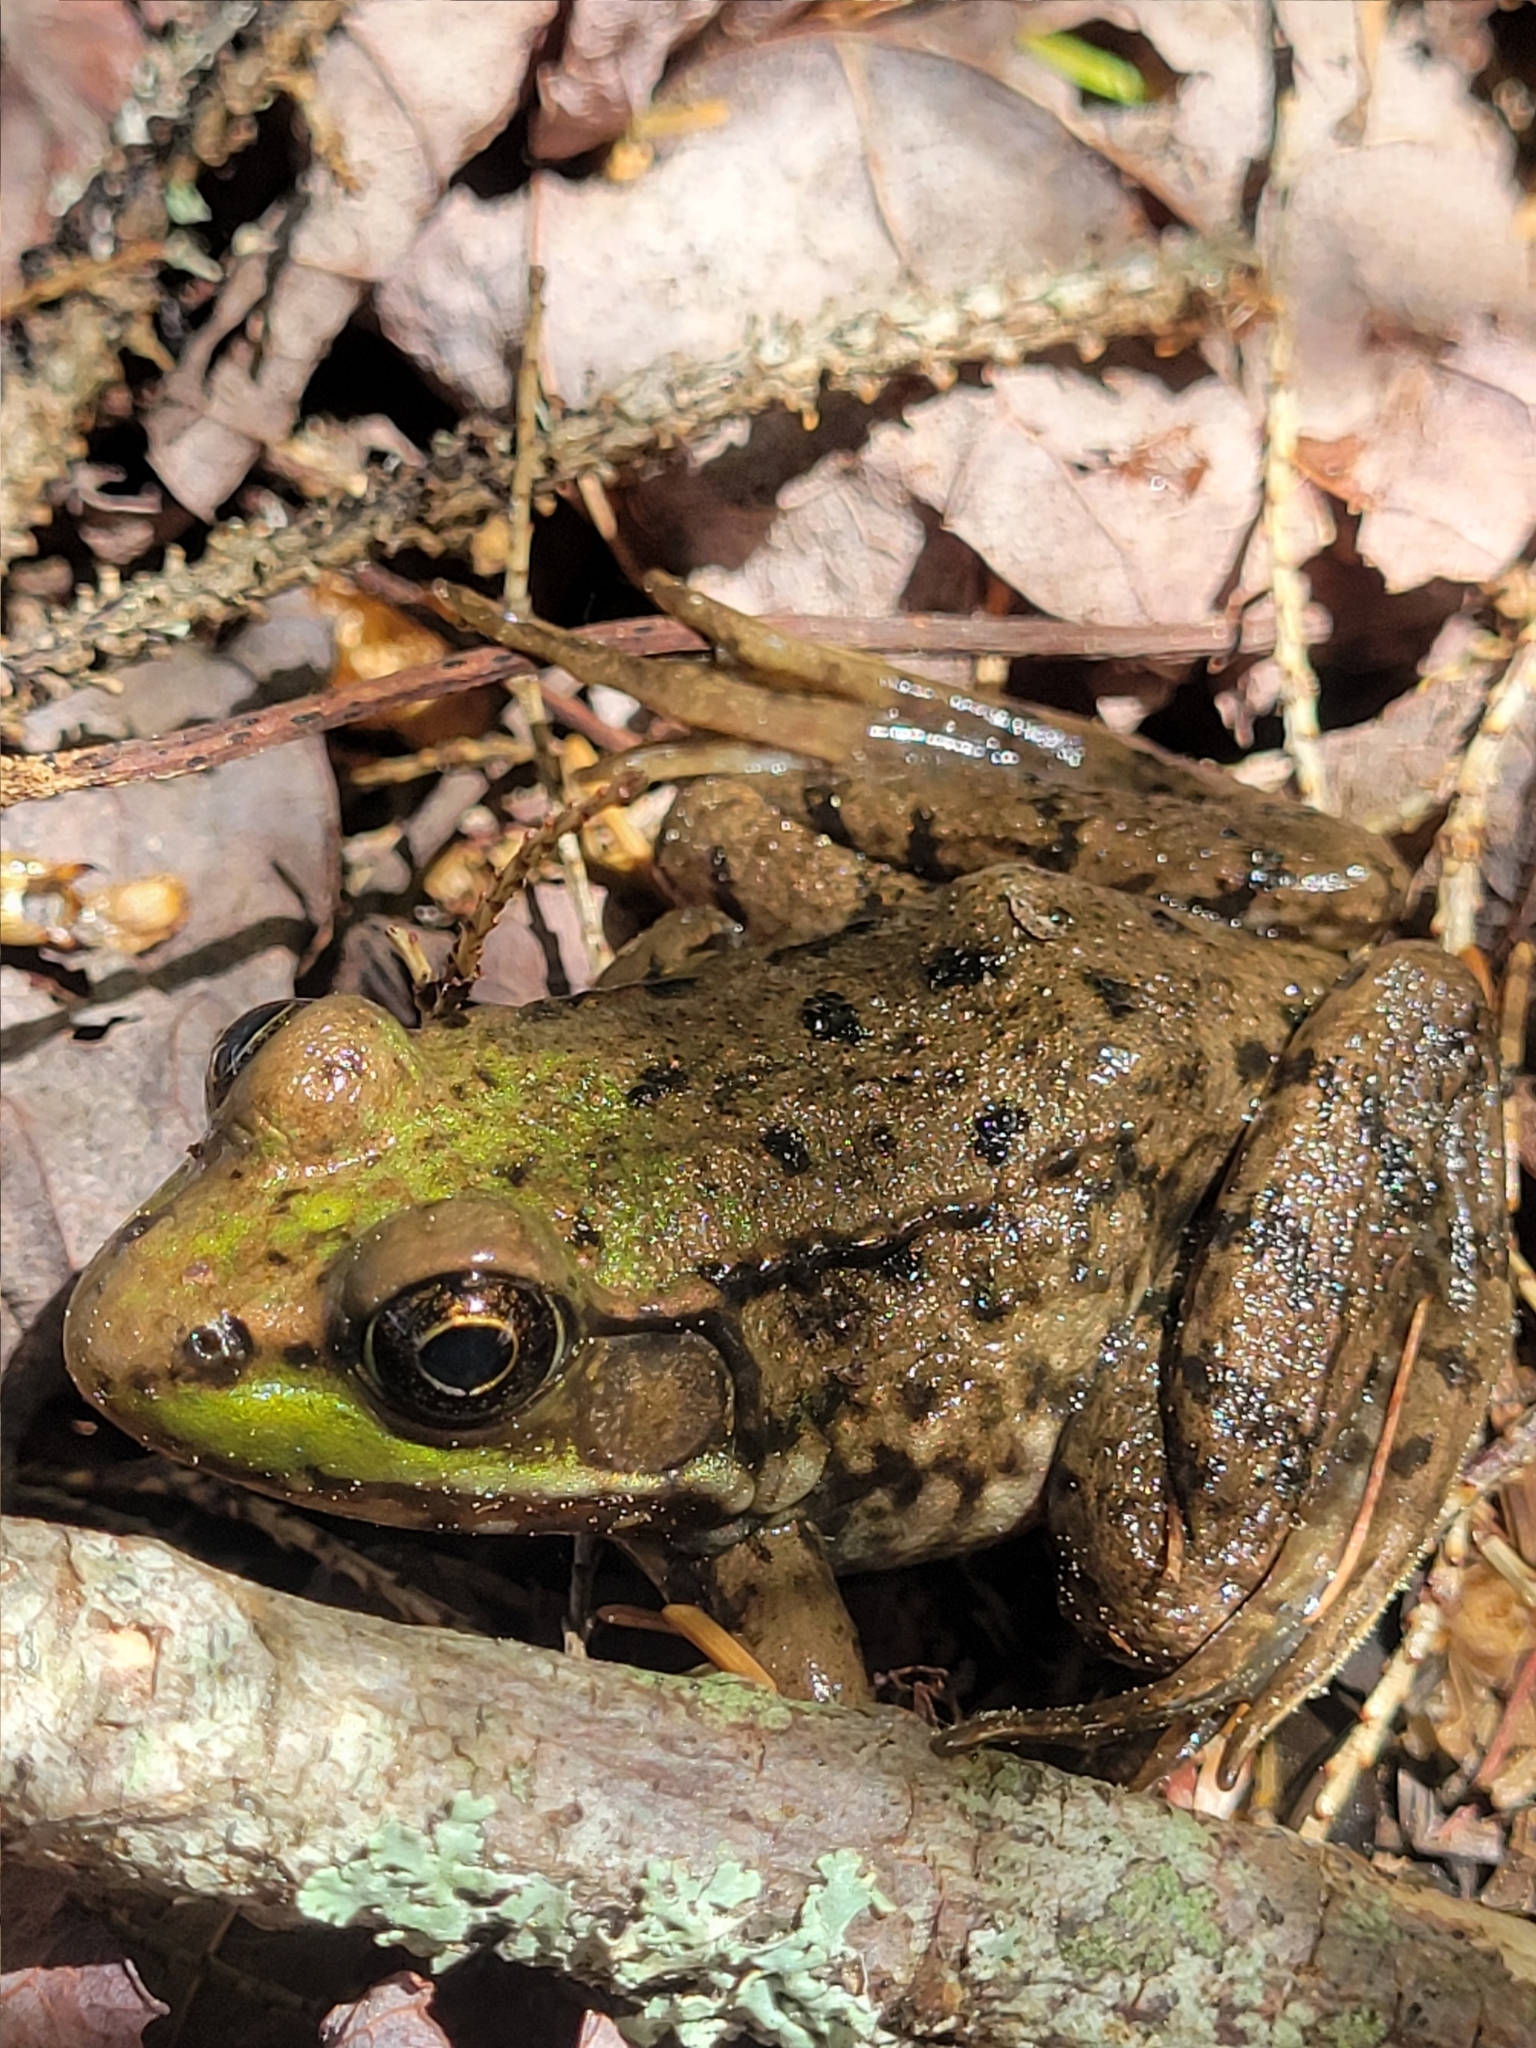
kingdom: Animalia
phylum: Chordata
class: Amphibia
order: Anura
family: Ranidae
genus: Lithobates
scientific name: Lithobates clamitans
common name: Green frog
